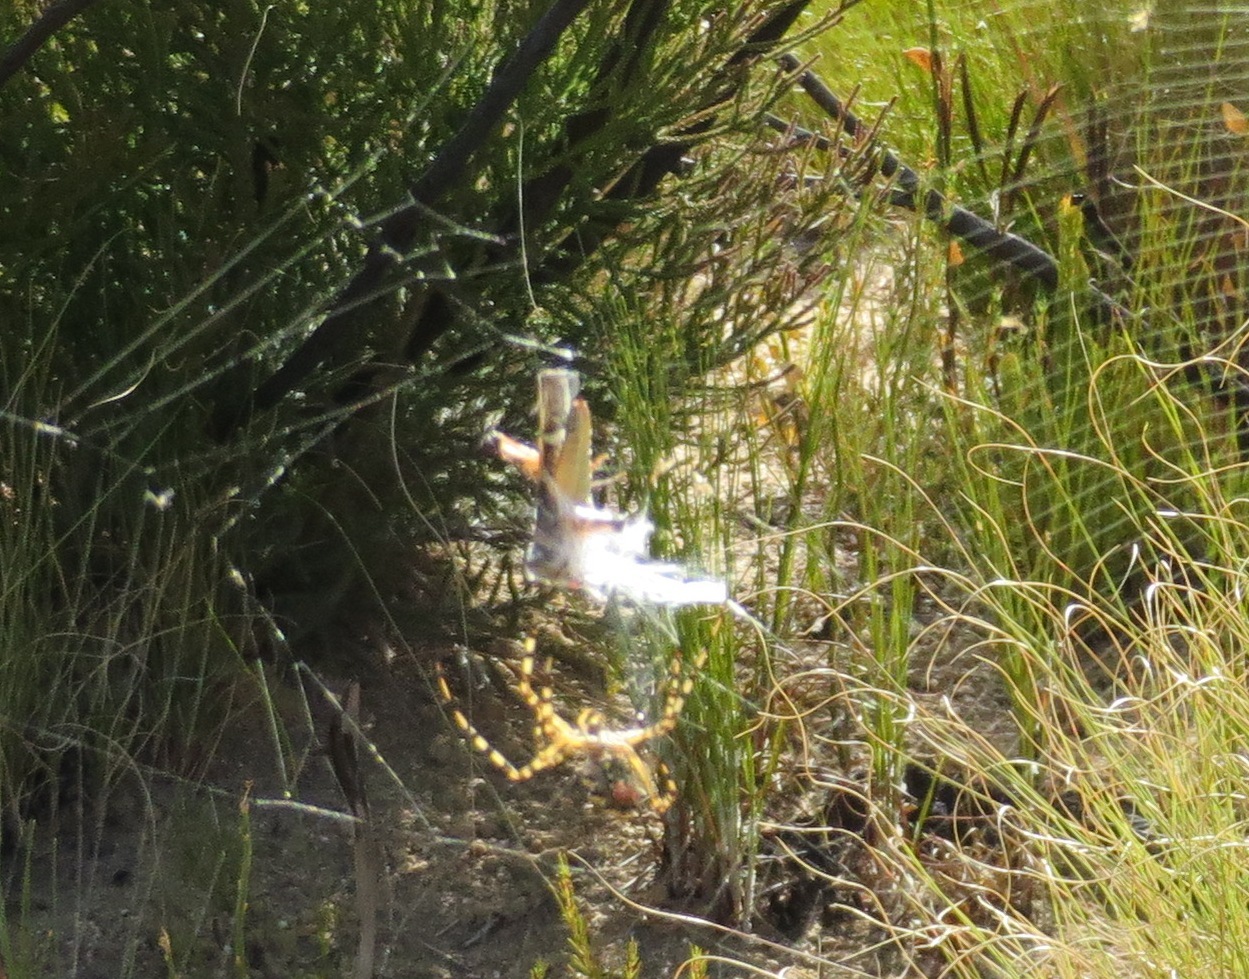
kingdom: Animalia
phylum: Arthropoda
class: Arachnida
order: Araneae
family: Araneidae
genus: Argiope
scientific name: Argiope australis
